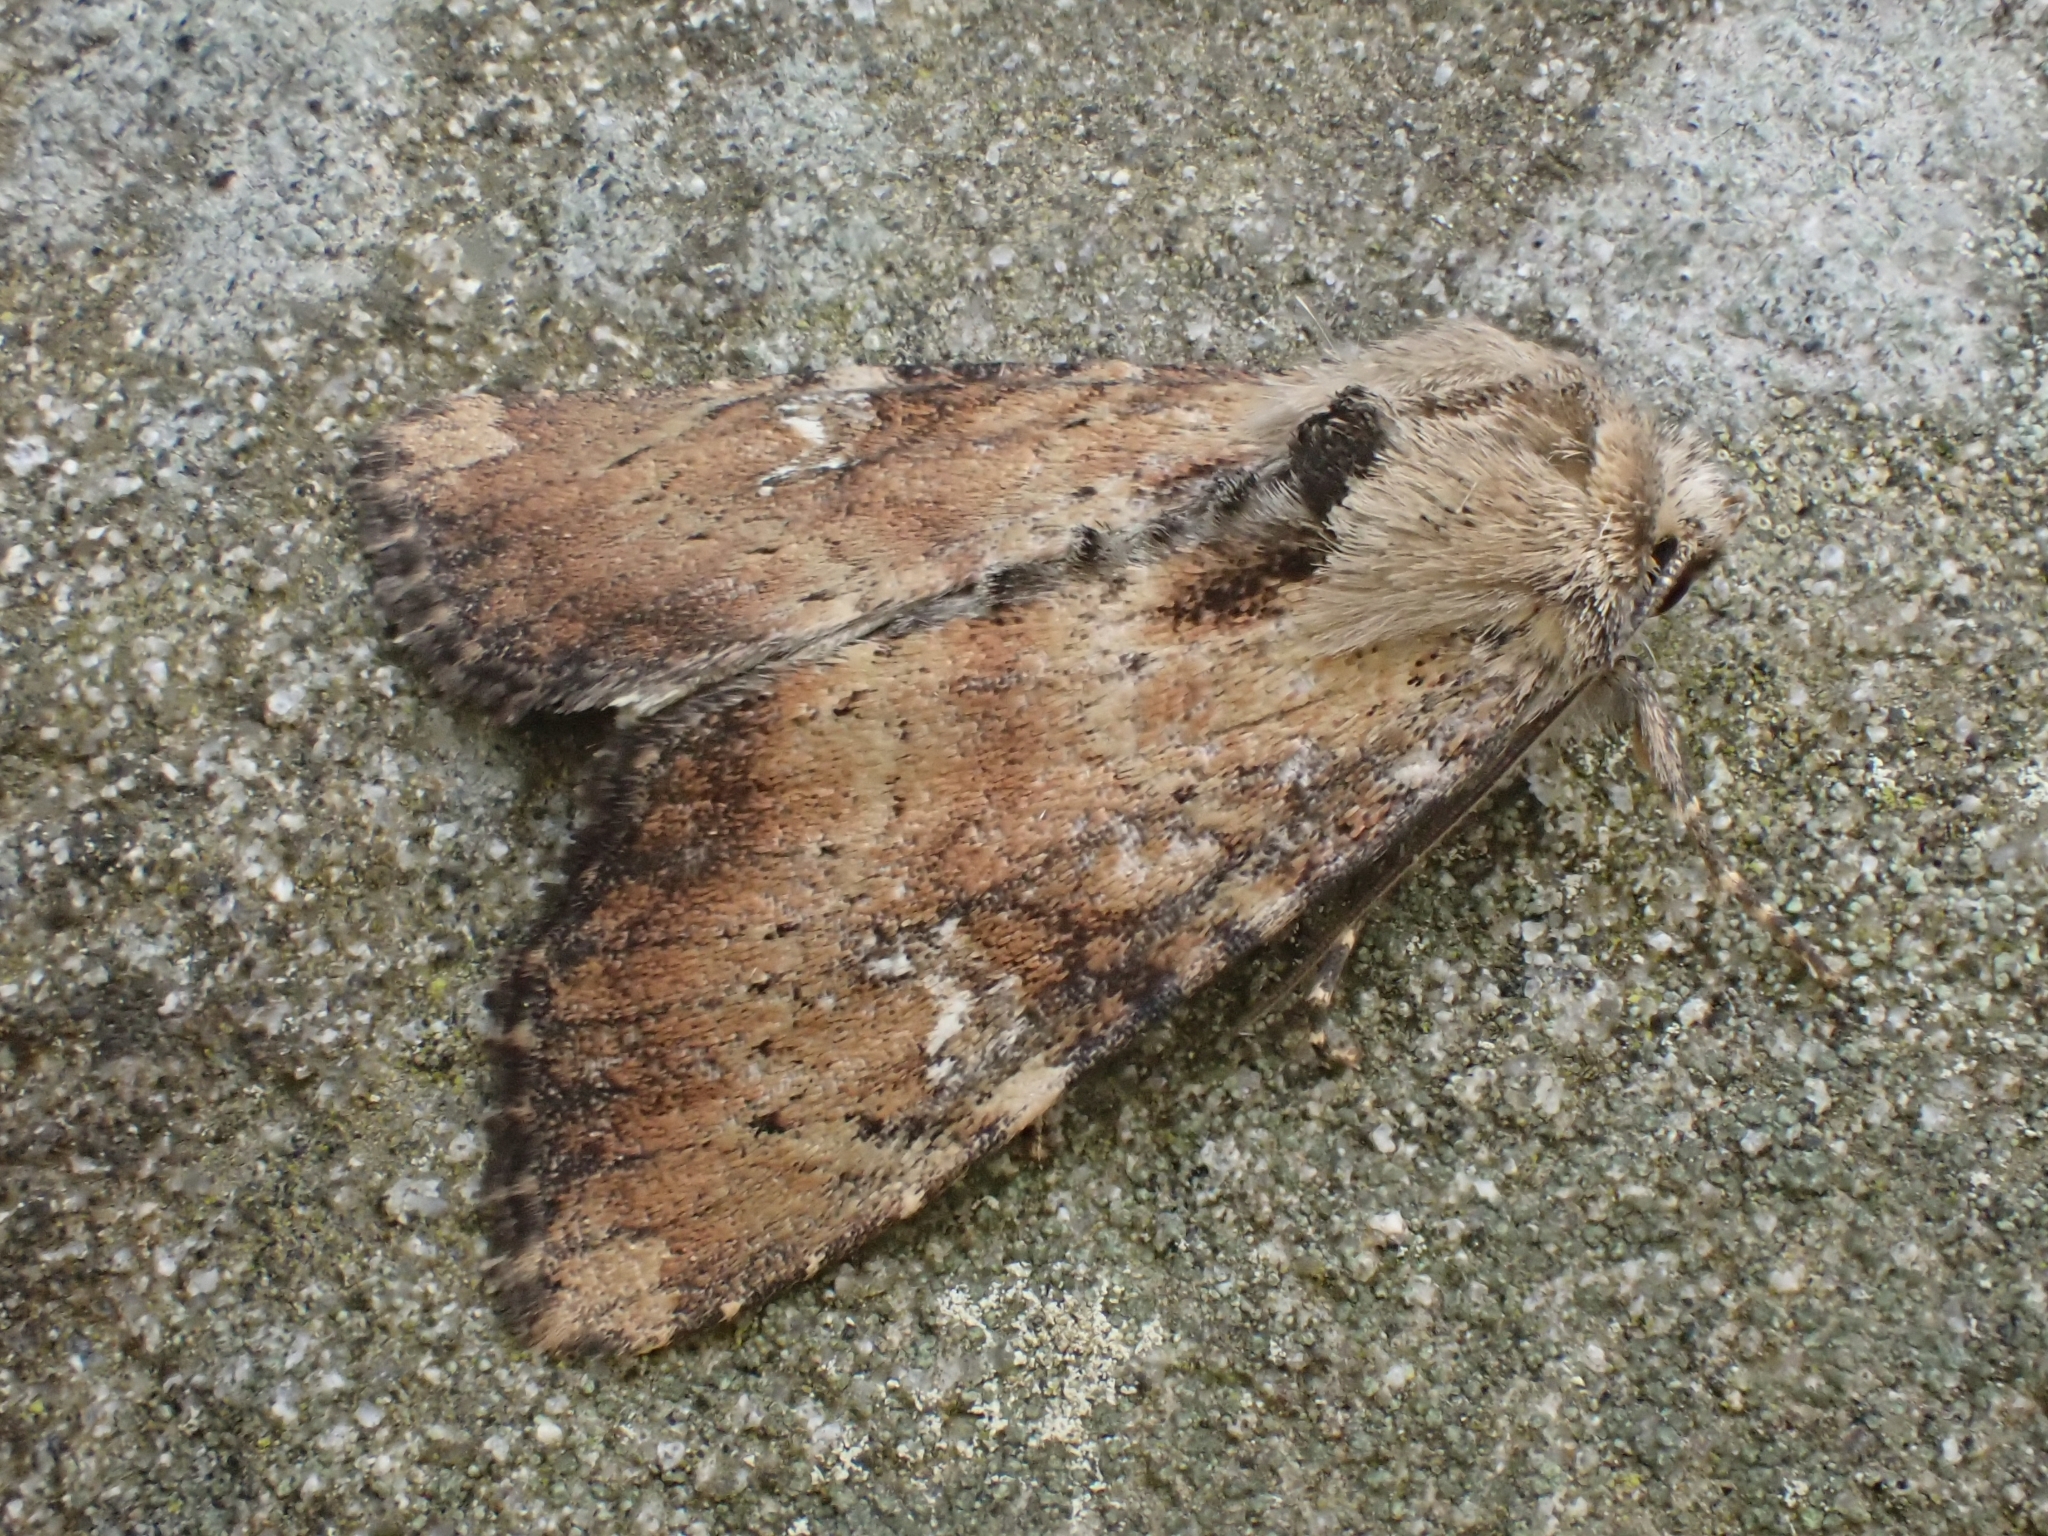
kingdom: Animalia
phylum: Arthropoda
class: Insecta
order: Lepidoptera
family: Noctuidae
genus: Loscopia
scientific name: Loscopia scolopacina
